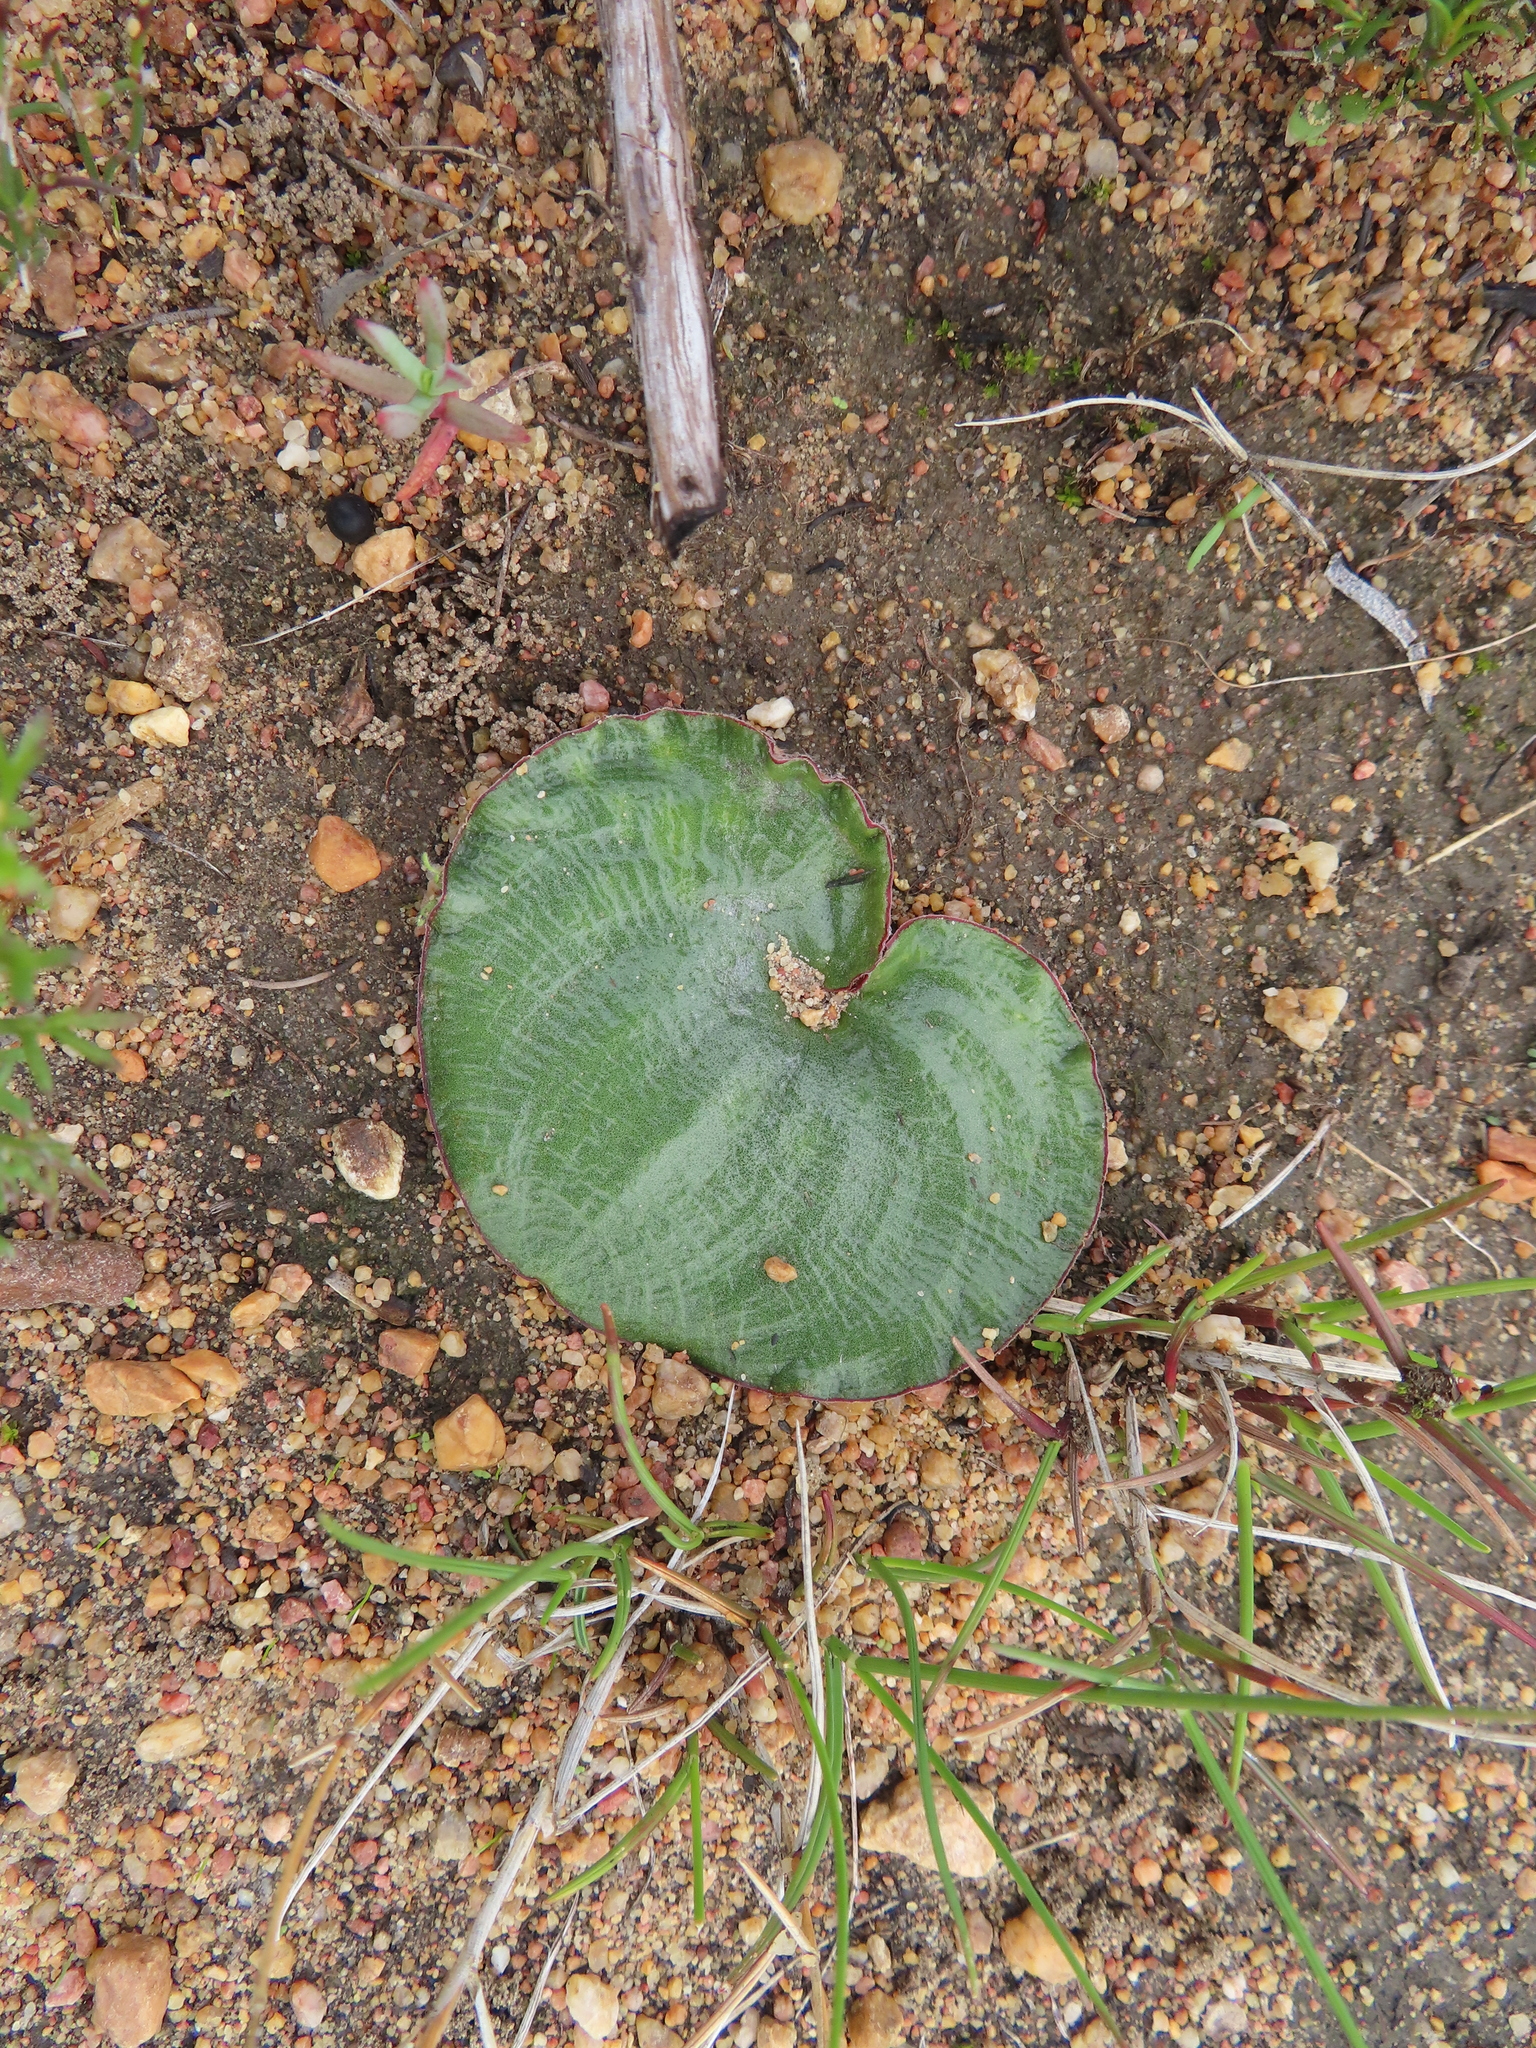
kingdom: Plantae
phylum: Tracheophyta
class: Liliopsida
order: Asparagales
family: Asparagaceae
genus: Eriospermum
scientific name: Eriospermum capense
